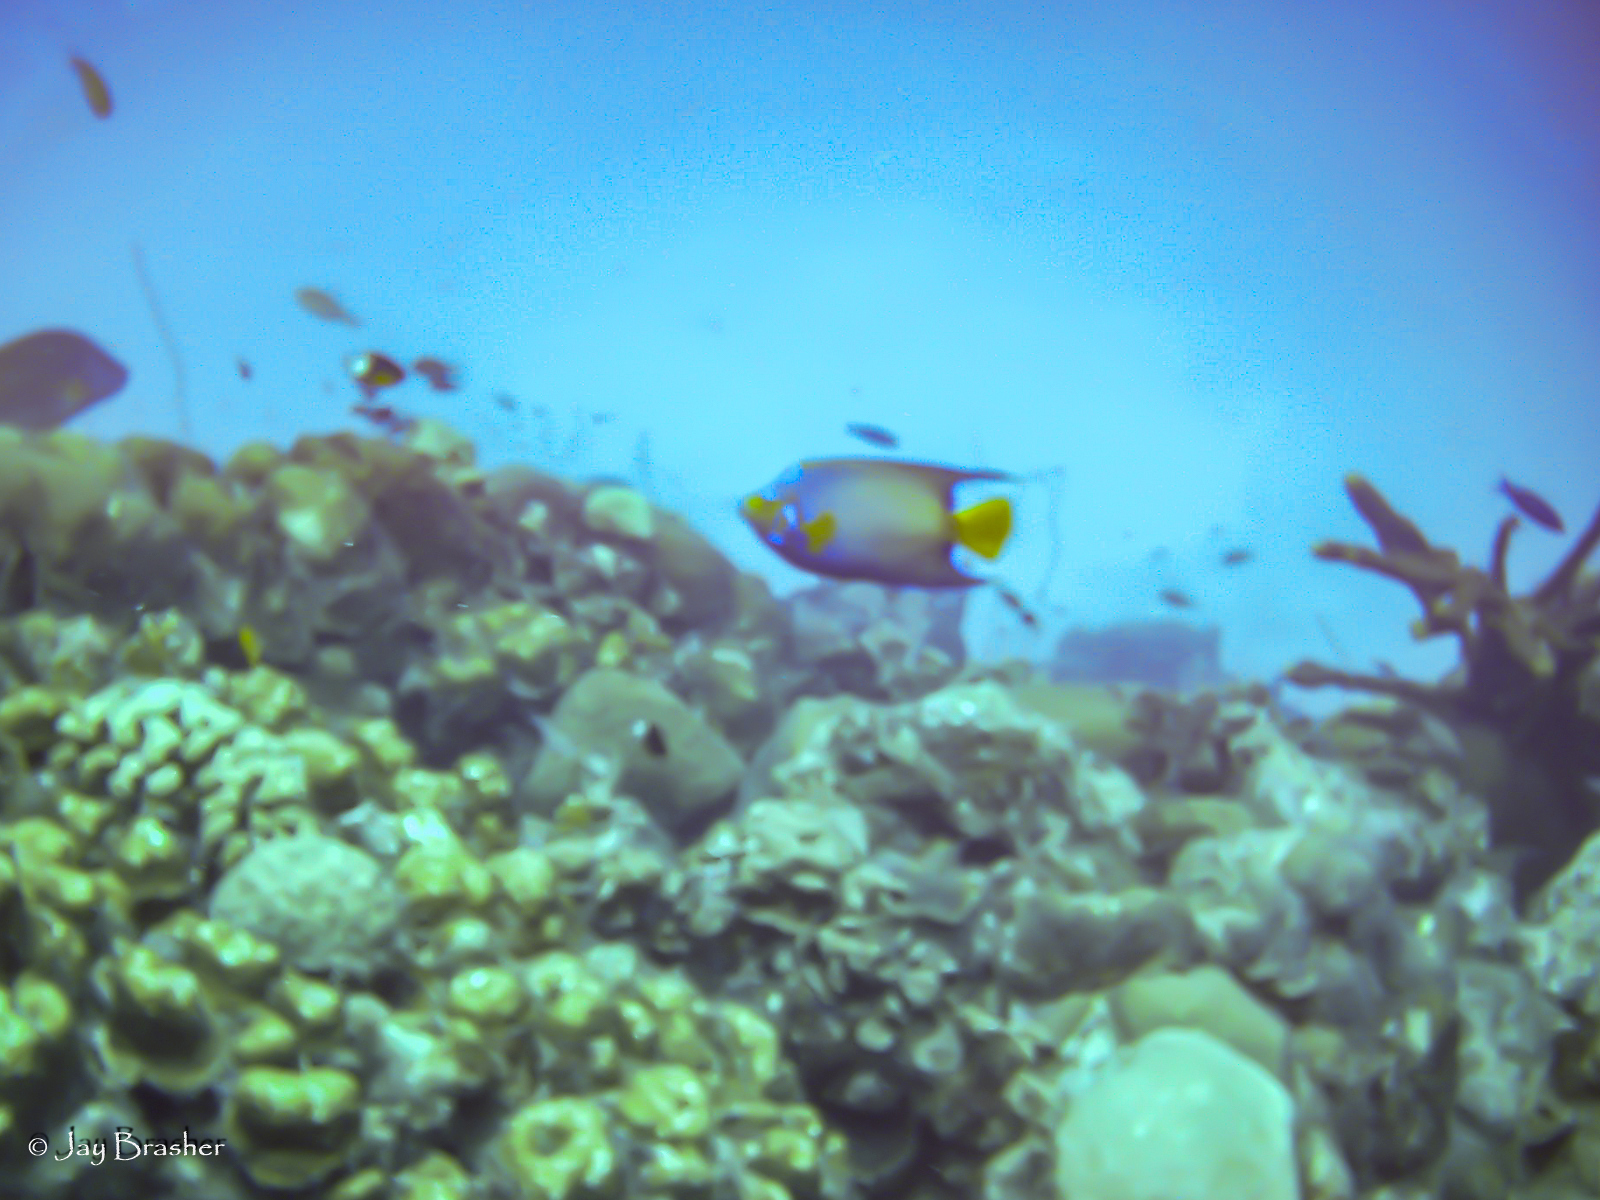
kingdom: Animalia
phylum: Chordata
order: Perciformes
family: Pomacanthidae
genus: Holacanthus
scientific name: Holacanthus ciliaris
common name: Queen angelfish
